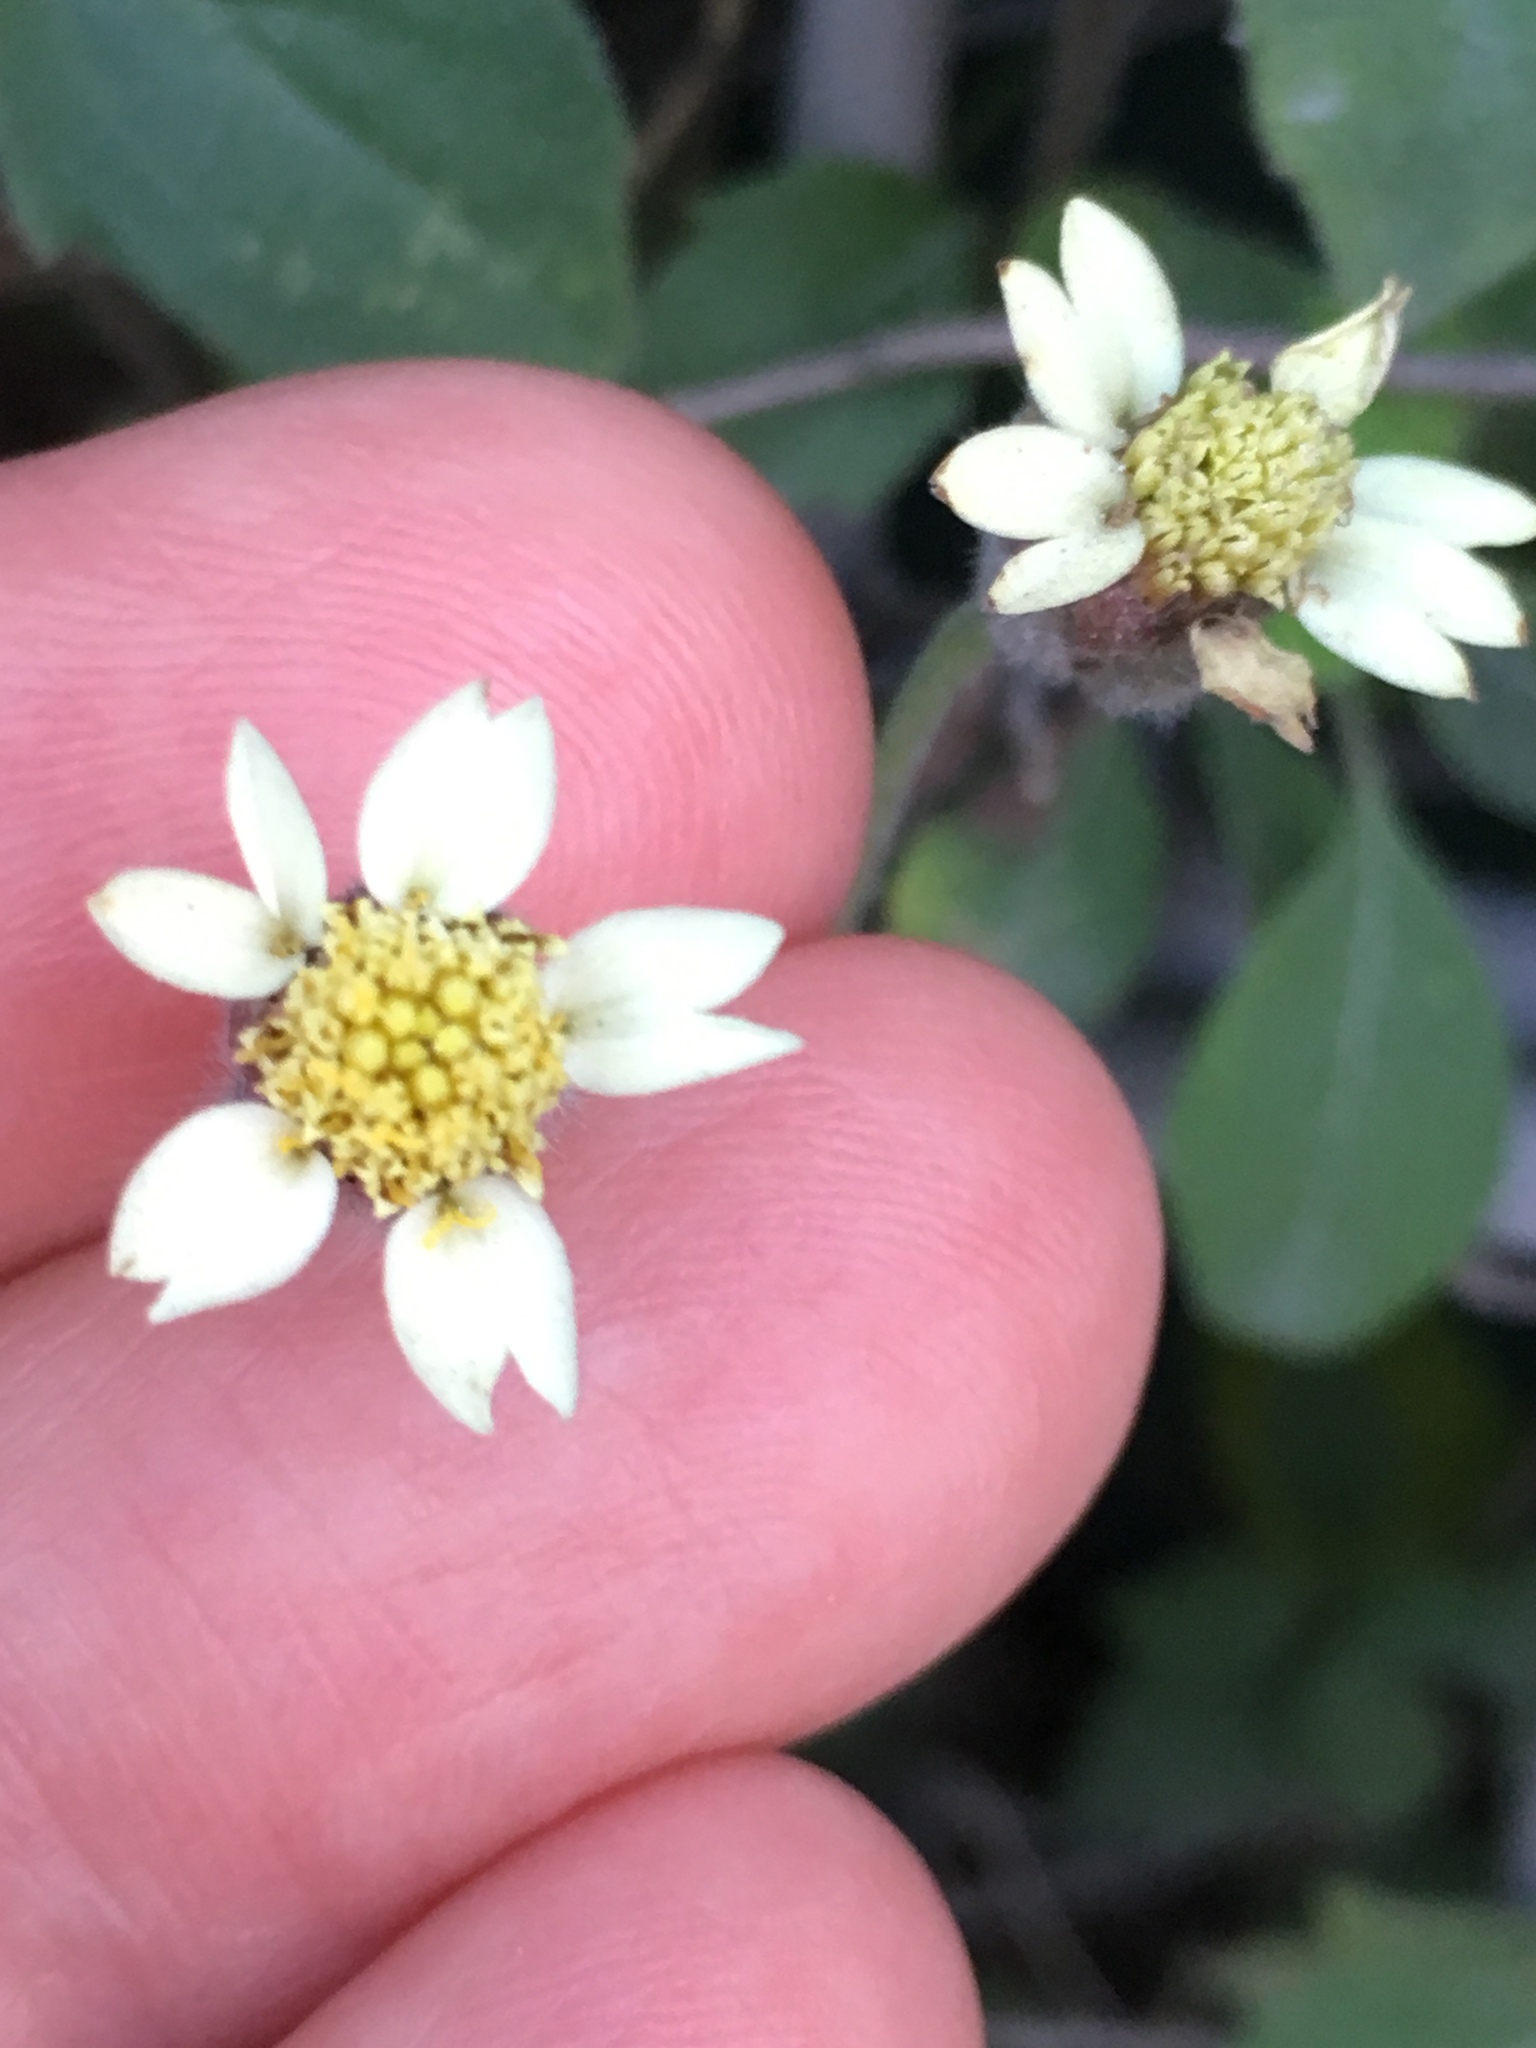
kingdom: Plantae
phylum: Tracheophyta
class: Magnoliopsida
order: Asterales
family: Asteraceae
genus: Tridax
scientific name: Tridax procumbens
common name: Coatbuttons
